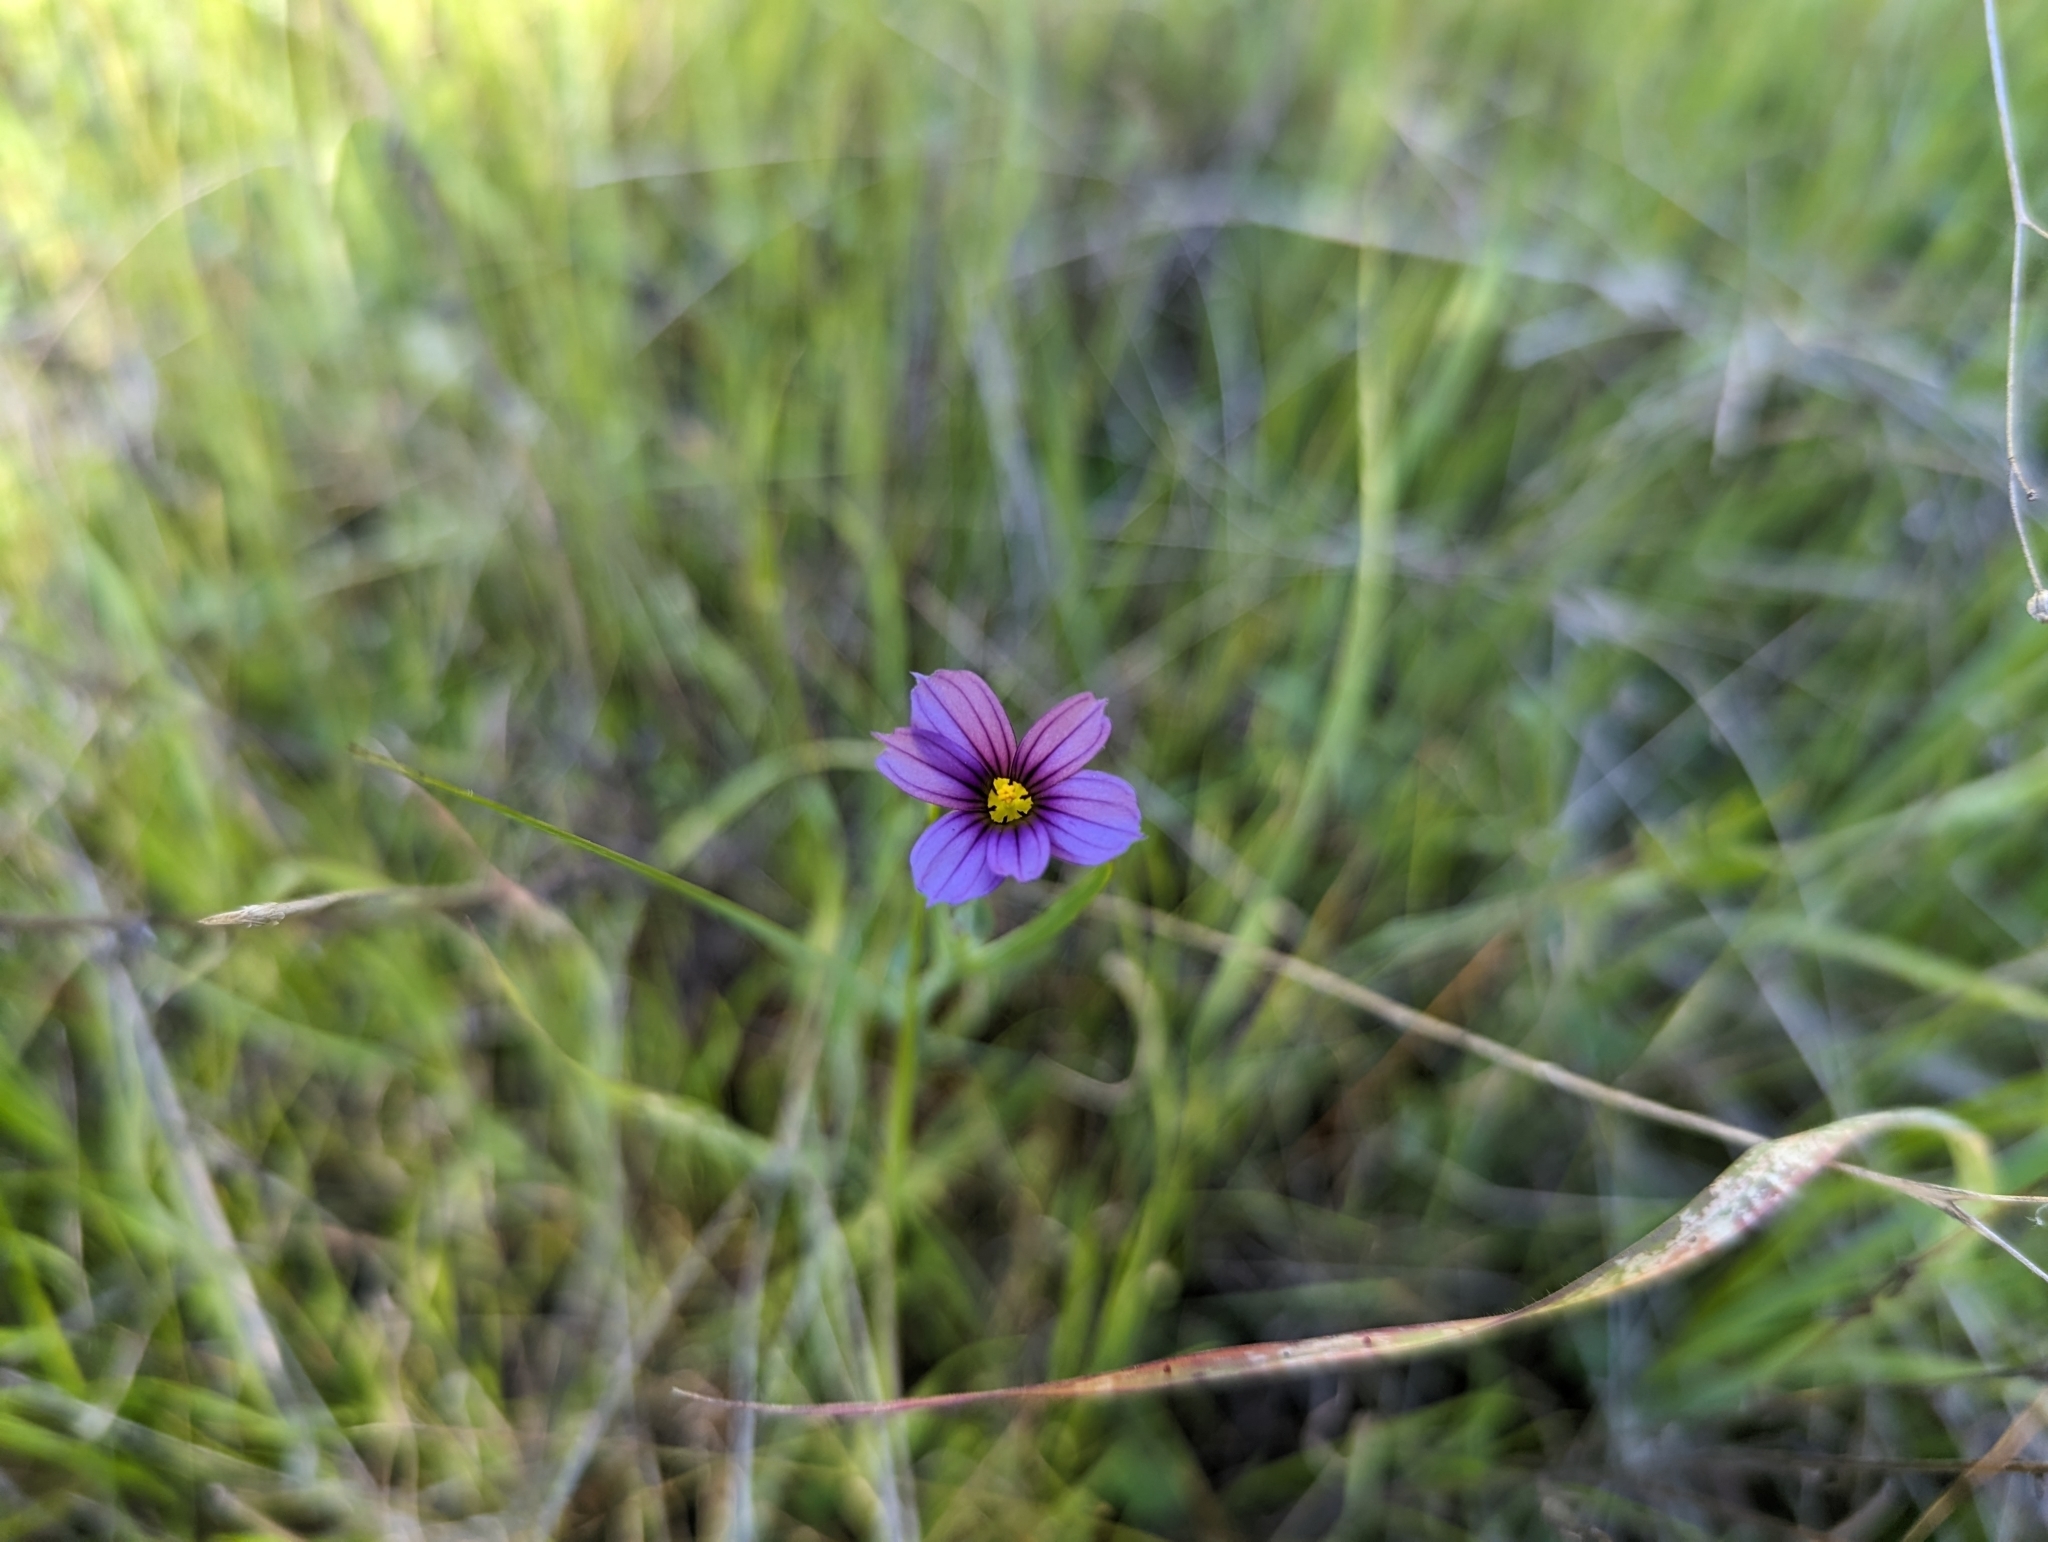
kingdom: Plantae
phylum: Tracheophyta
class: Liliopsida
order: Asparagales
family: Iridaceae
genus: Sisyrinchium
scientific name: Sisyrinchium bellum
